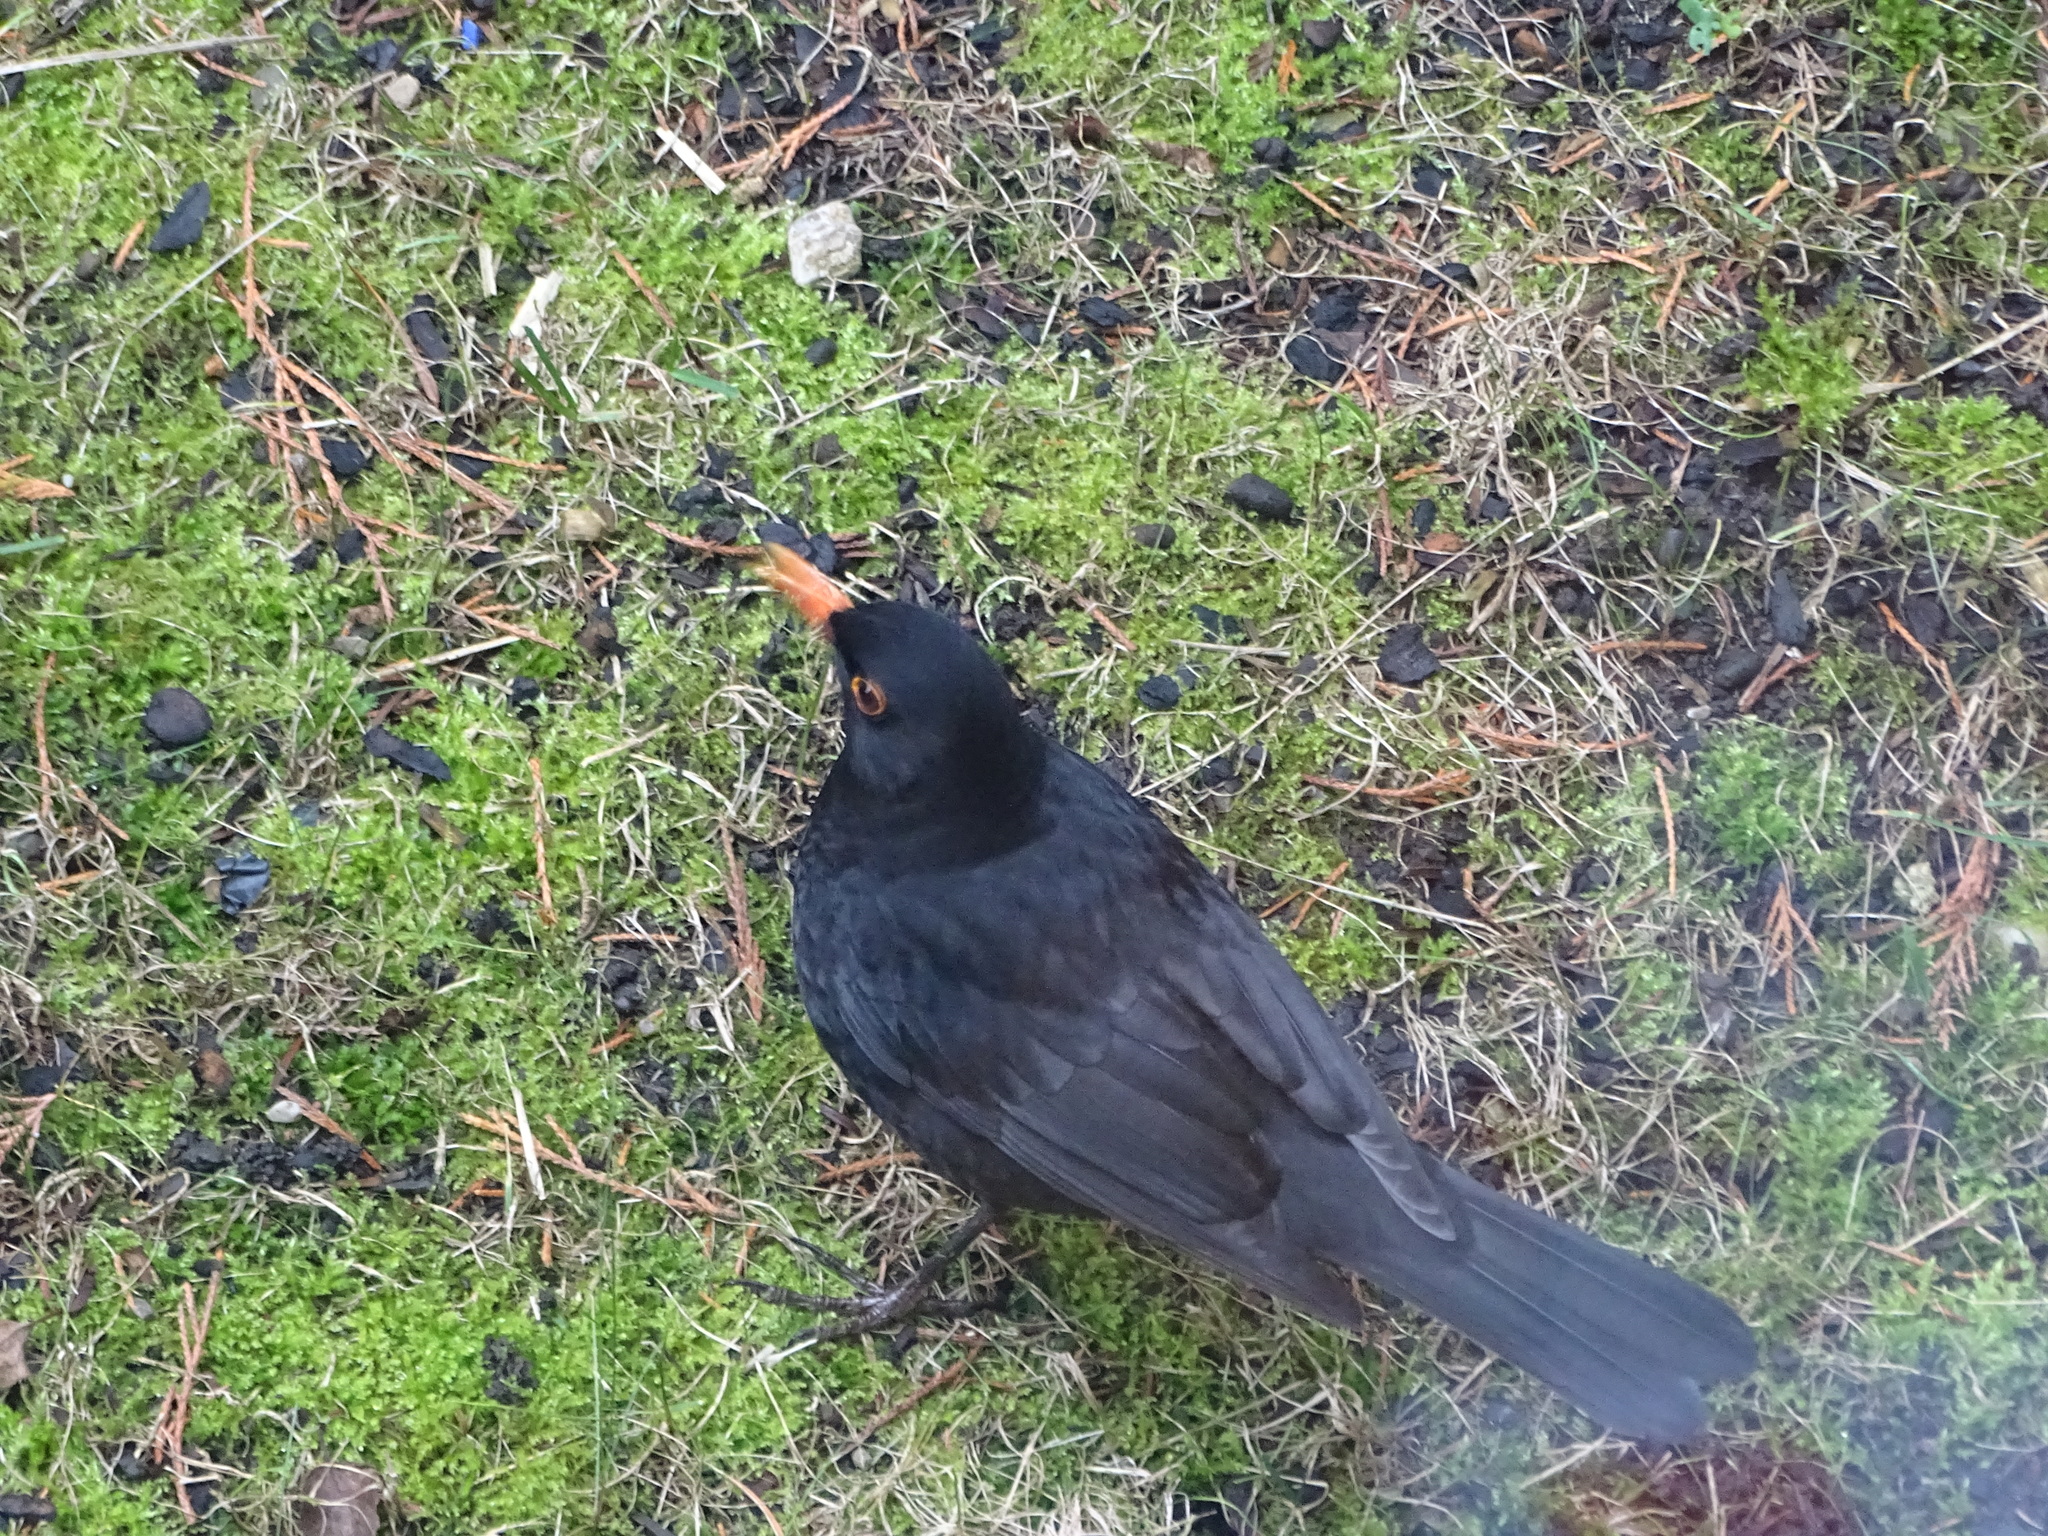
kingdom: Animalia
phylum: Chordata
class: Aves
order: Passeriformes
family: Turdidae
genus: Turdus
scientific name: Turdus merula
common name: Common blackbird
